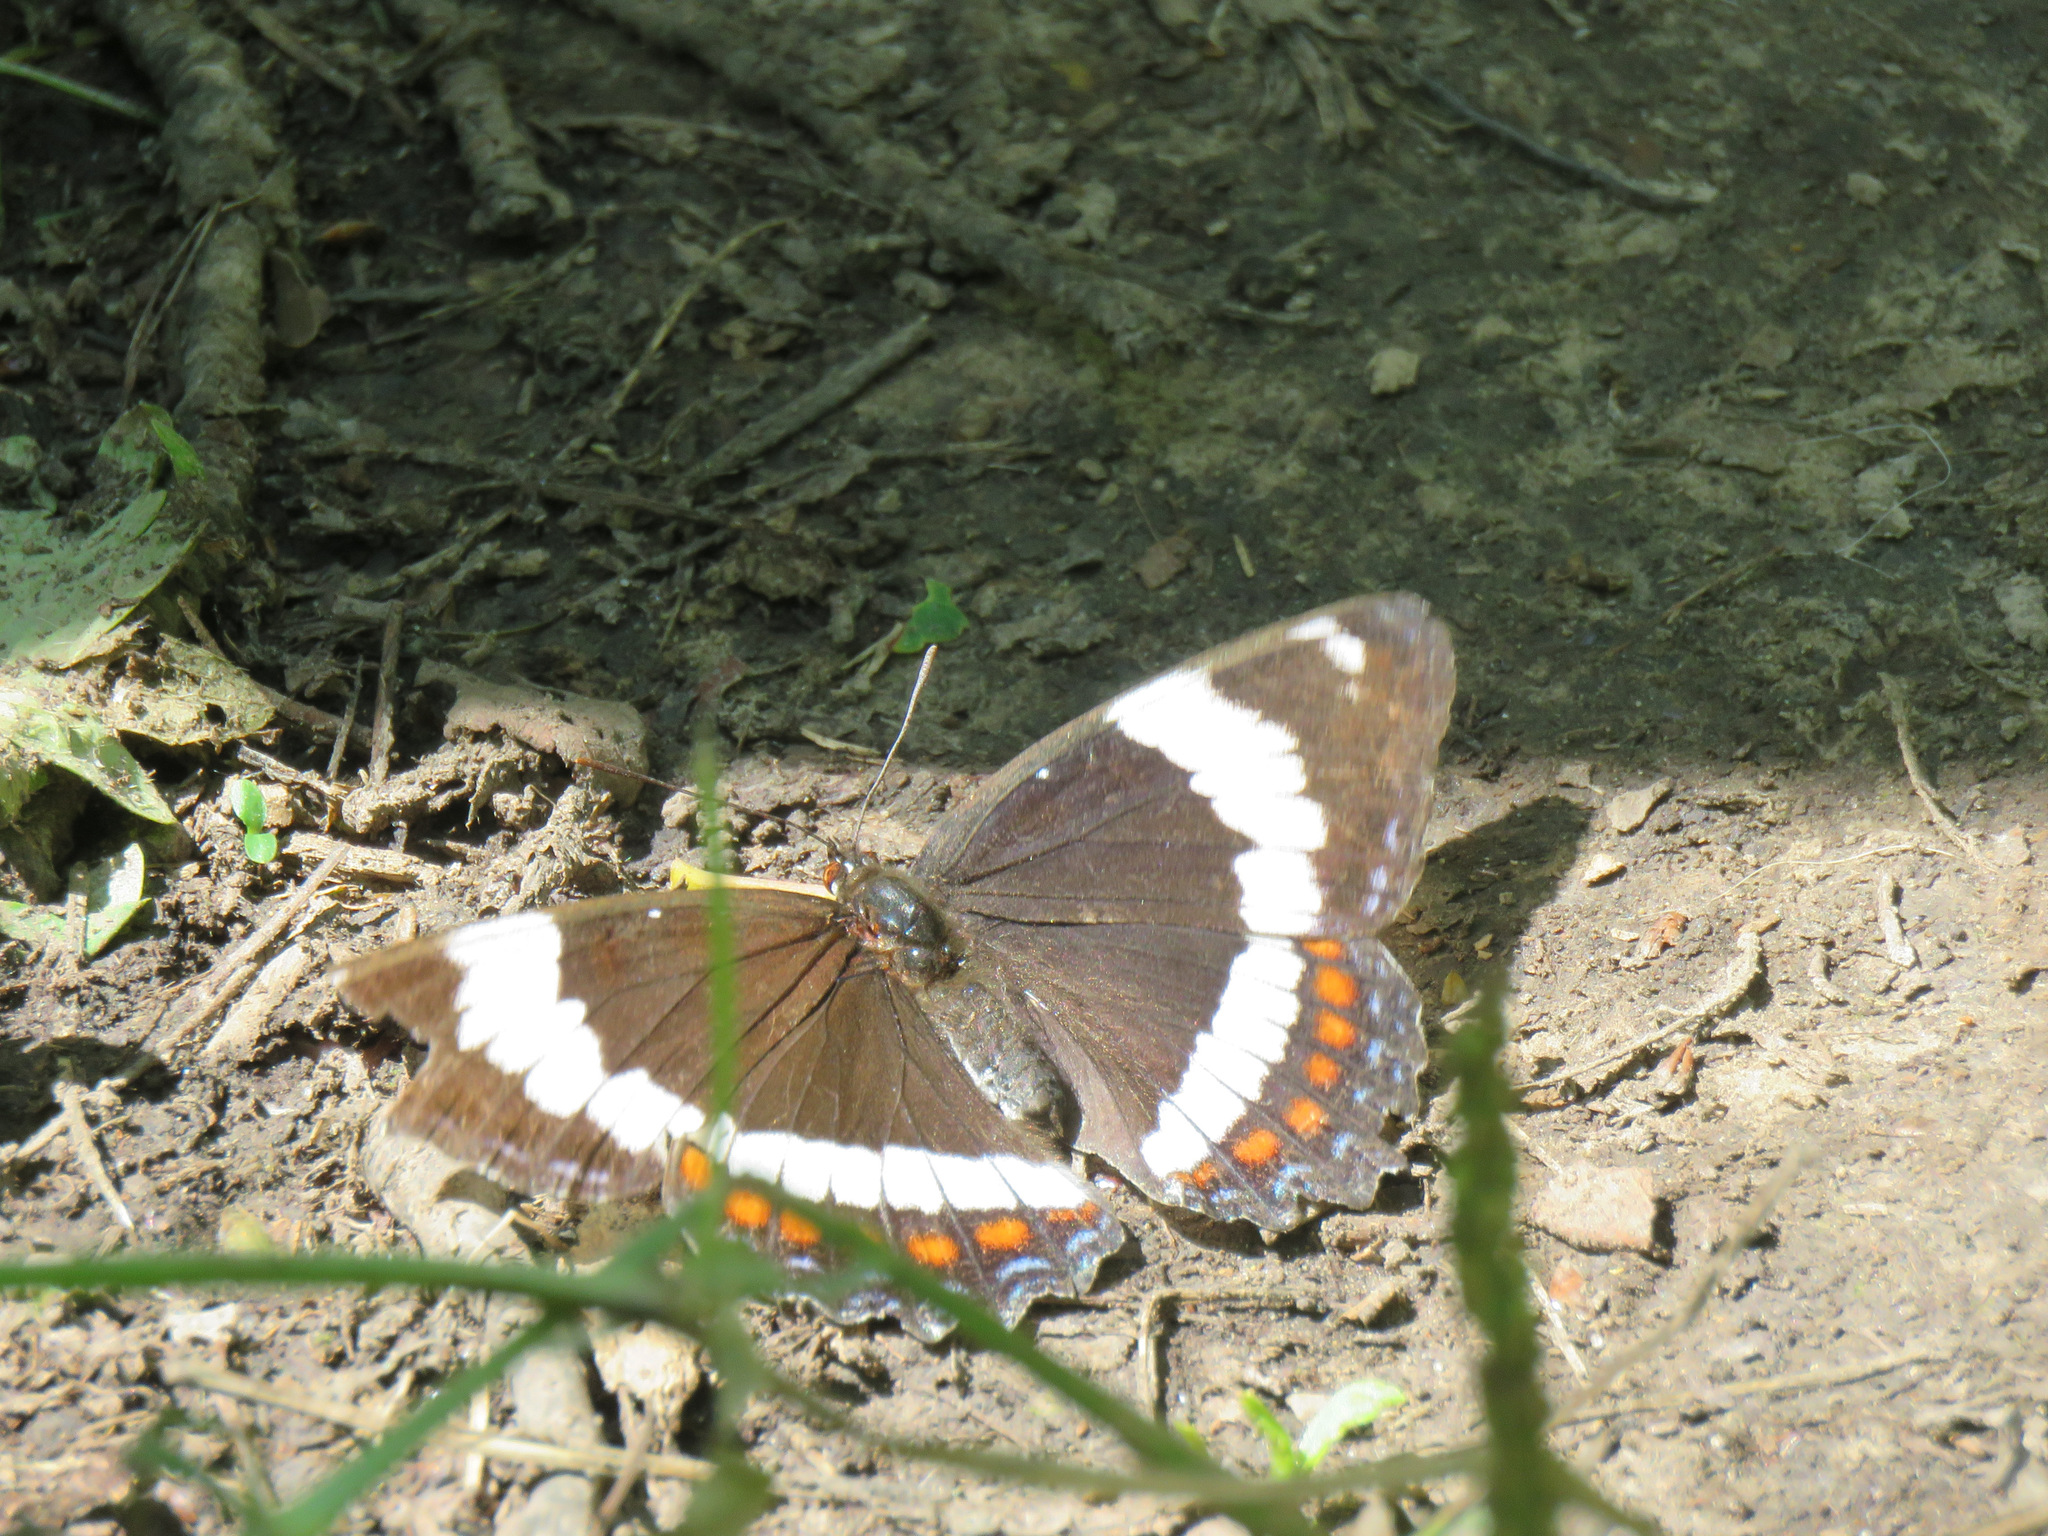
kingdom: Animalia
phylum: Arthropoda
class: Insecta
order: Lepidoptera
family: Nymphalidae
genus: Limenitis
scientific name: Limenitis arthemis
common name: Red-spotted admiral
